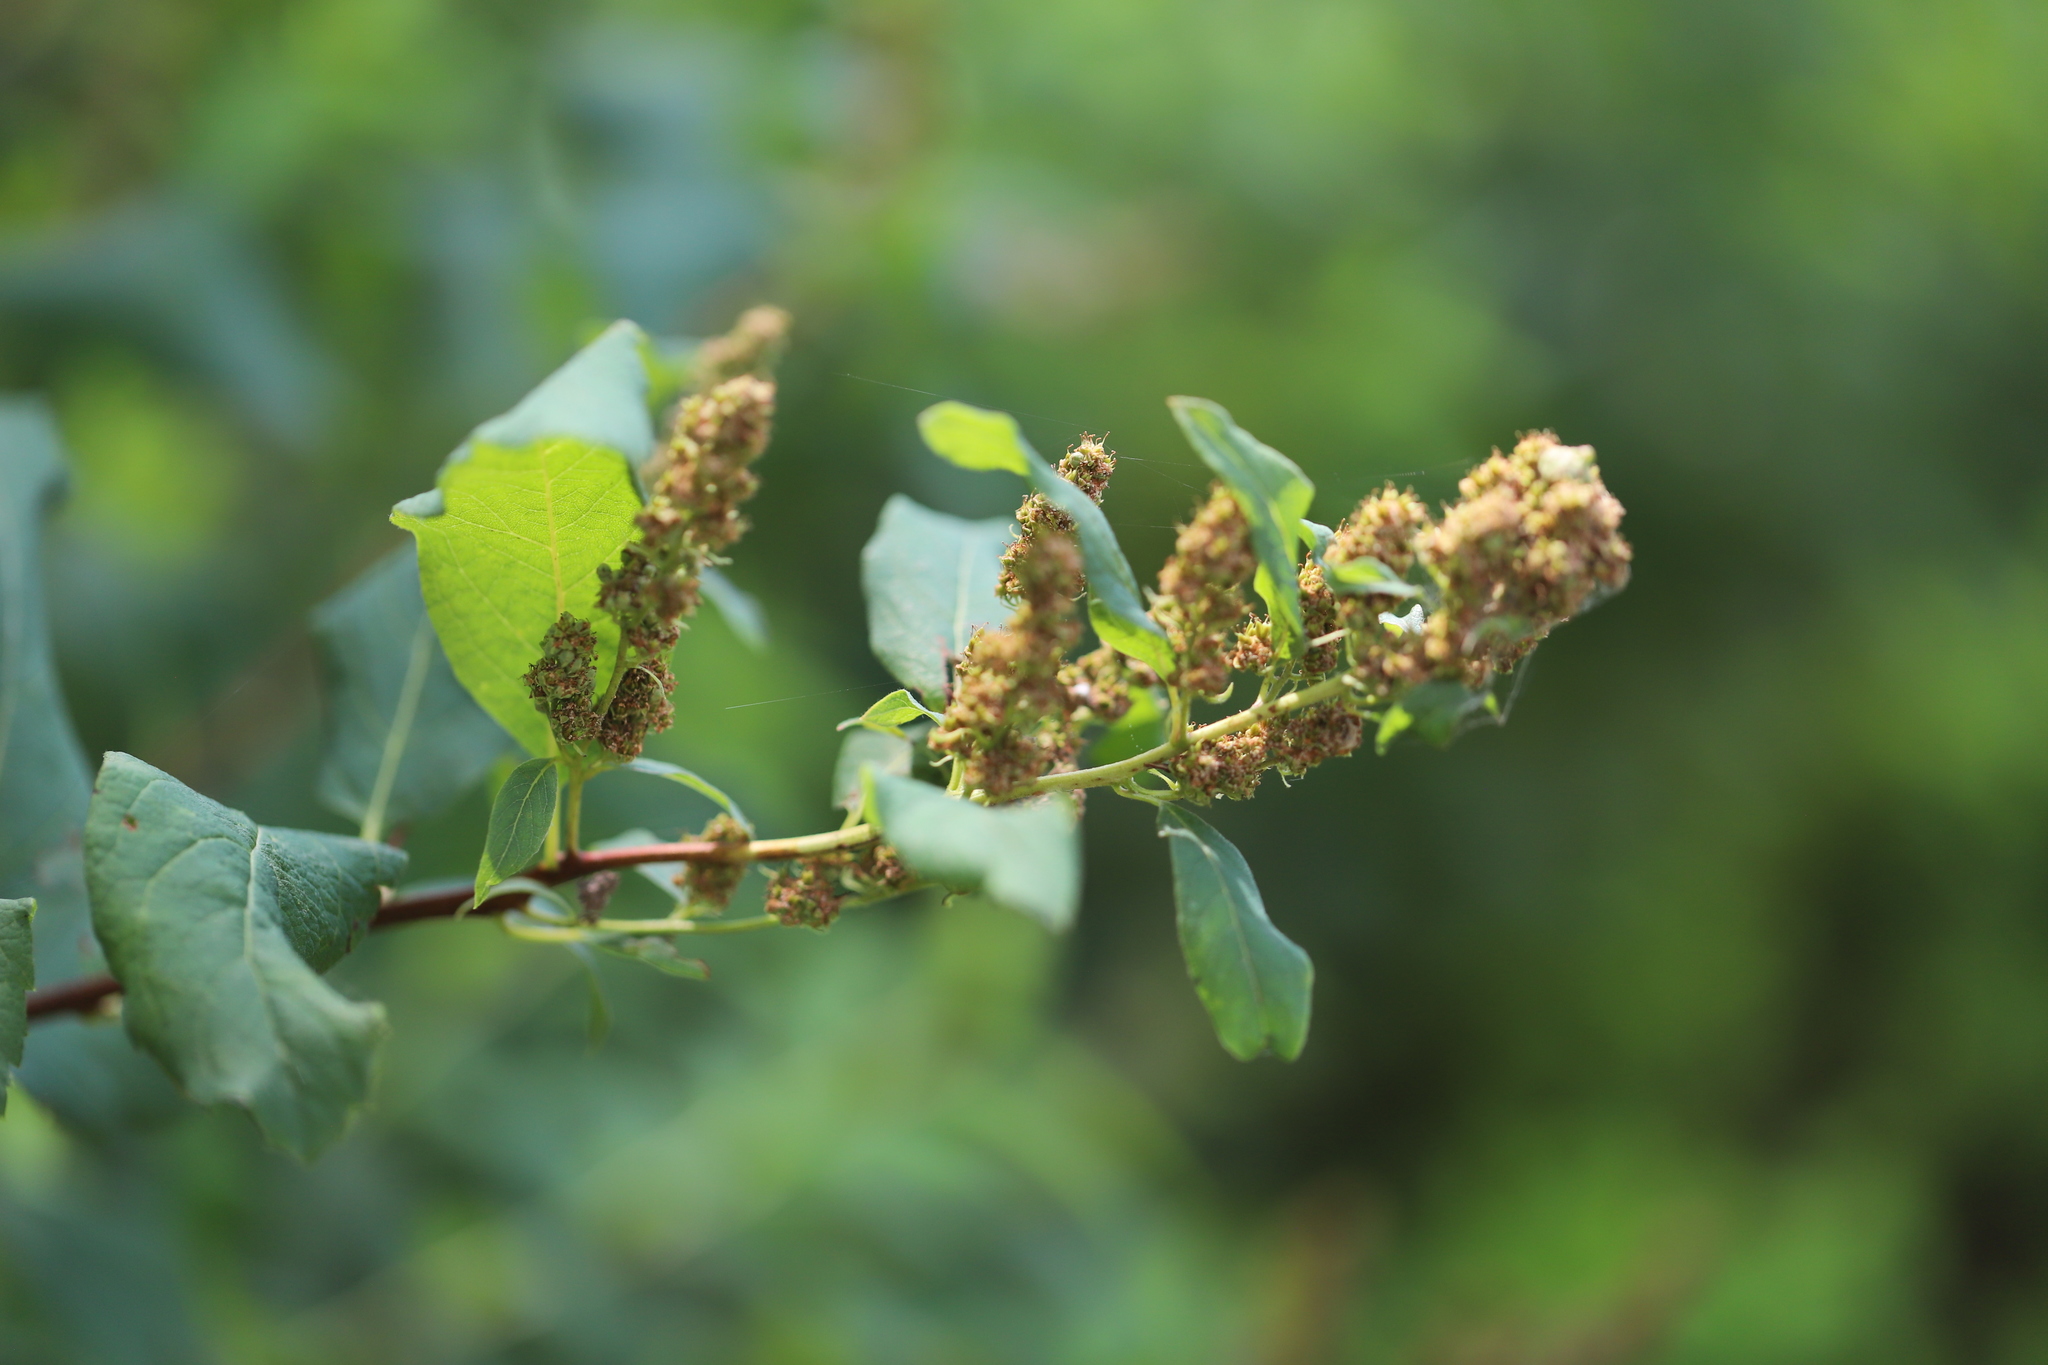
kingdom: Plantae
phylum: Tracheophyta
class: Magnoliopsida
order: Rosales
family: Rosaceae
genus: Spiraea
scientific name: Spiraea douglasii
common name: Steeplebush
